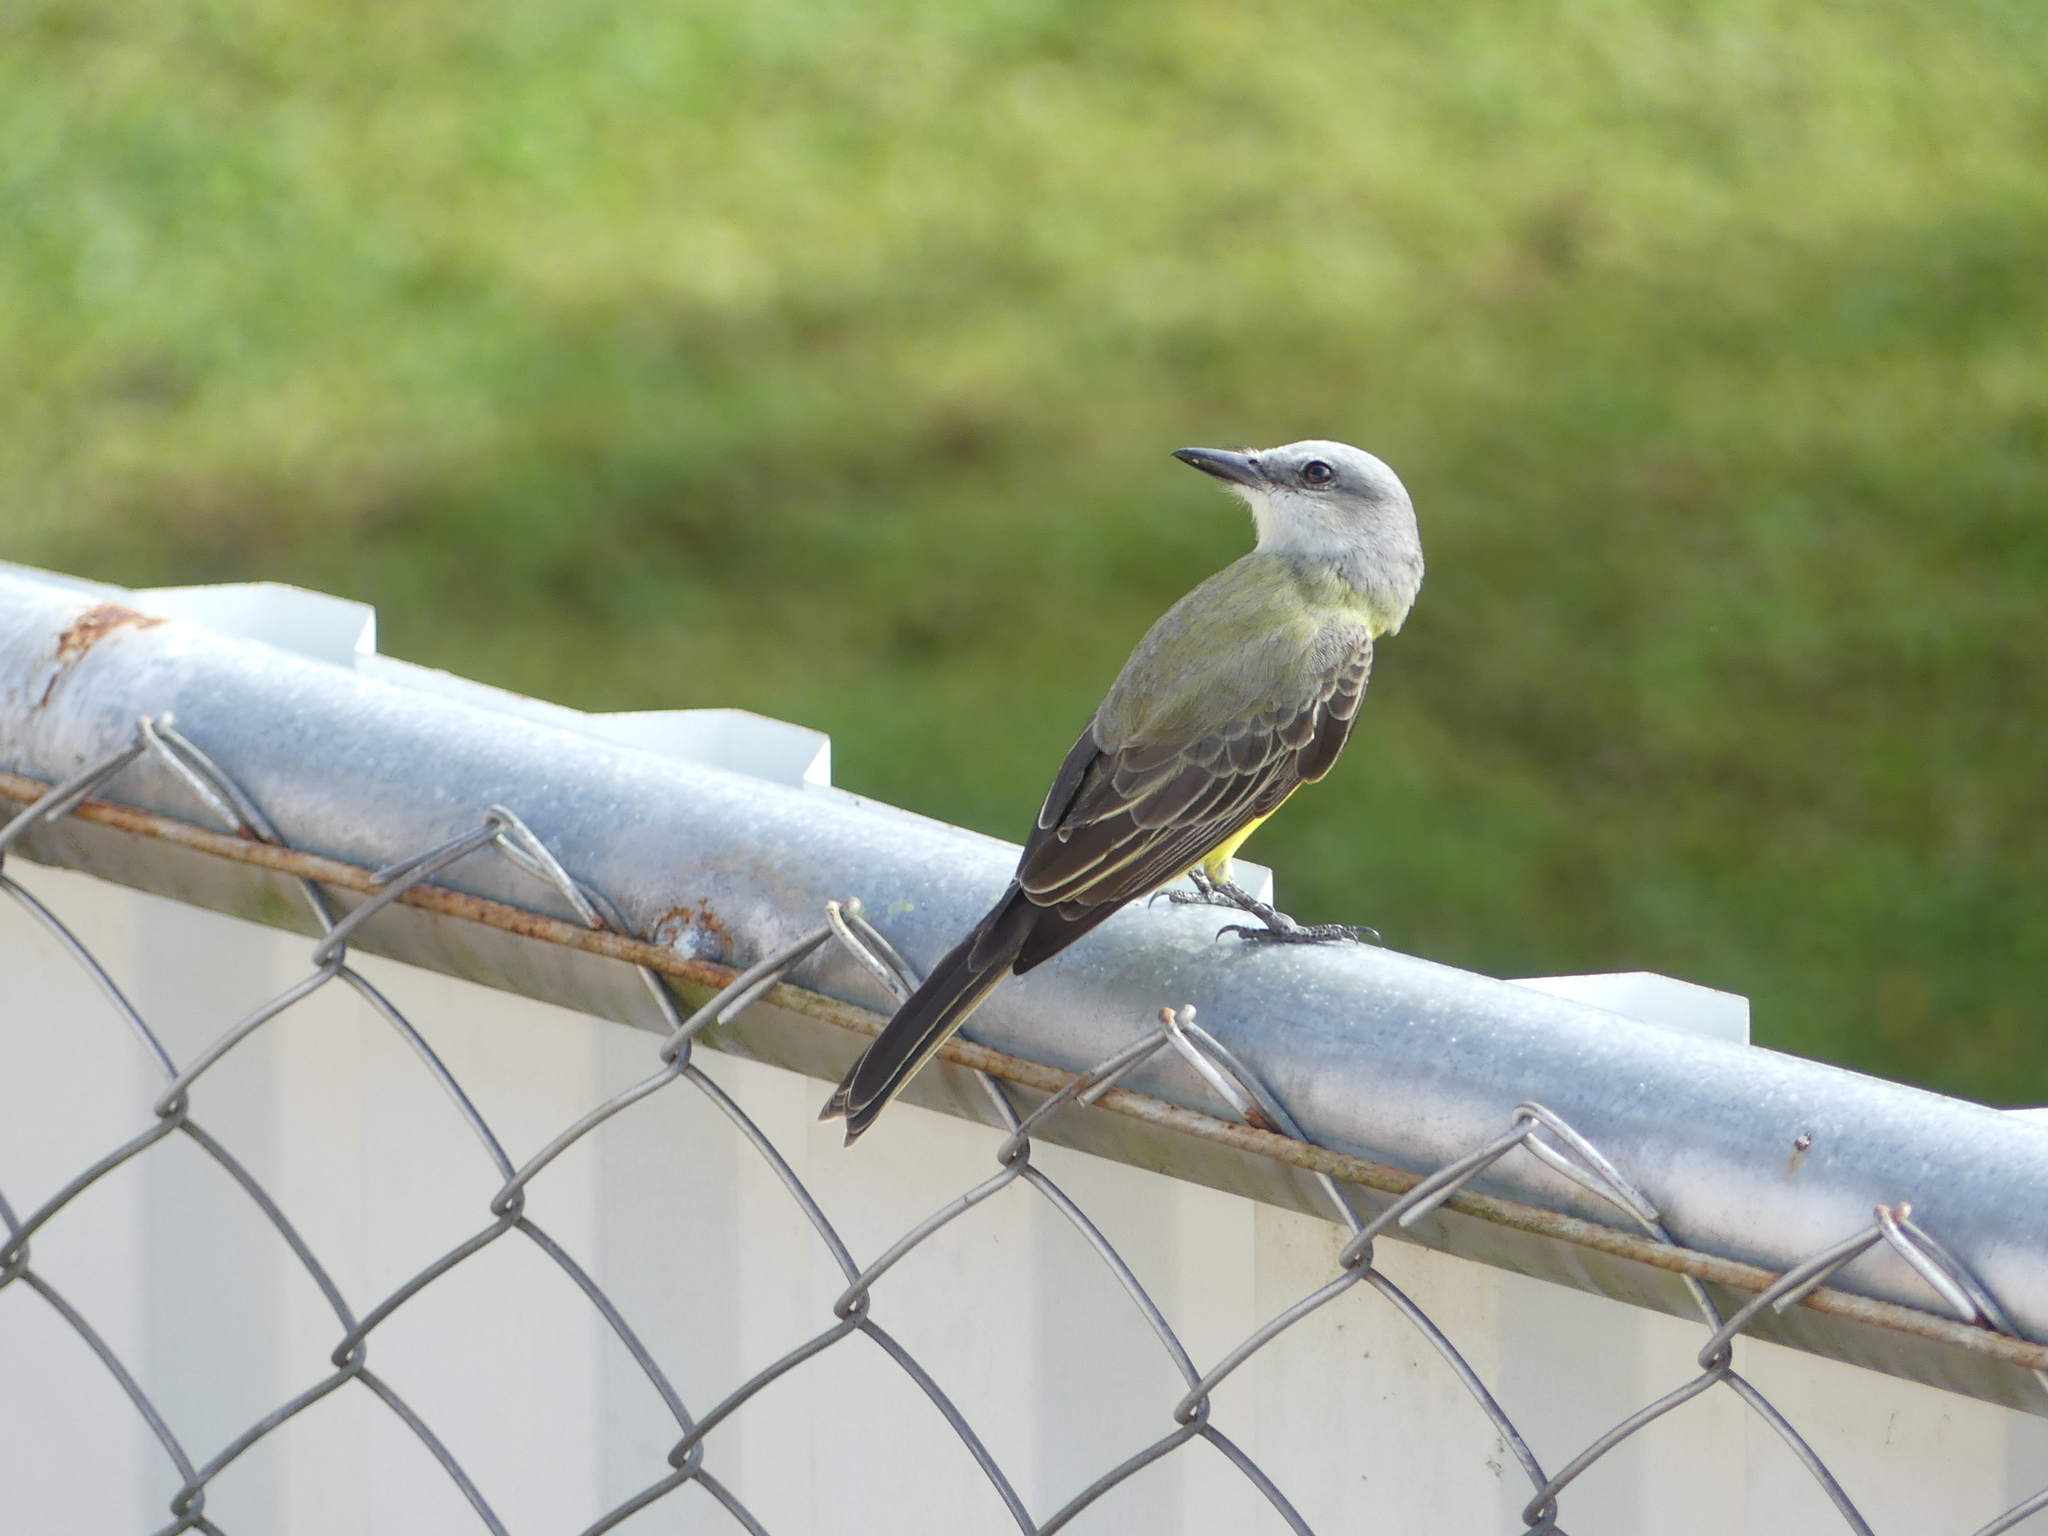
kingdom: Animalia
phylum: Chordata
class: Aves
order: Passeriformes
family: Tyrannidae
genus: Tyrannus
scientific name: Tyrannus melancholicus
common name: Tropical kingbird
